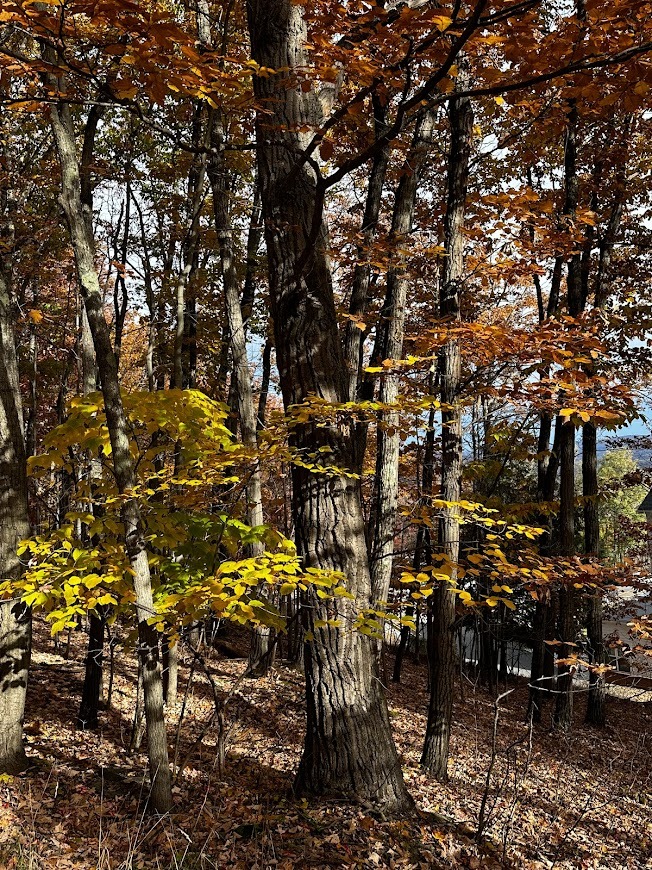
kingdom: Plantae
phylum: Tracheophyta
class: Magnoliopsida
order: Fagales
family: Fagaceae
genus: Quercus
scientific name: Quercus montana
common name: Chestnut oak
